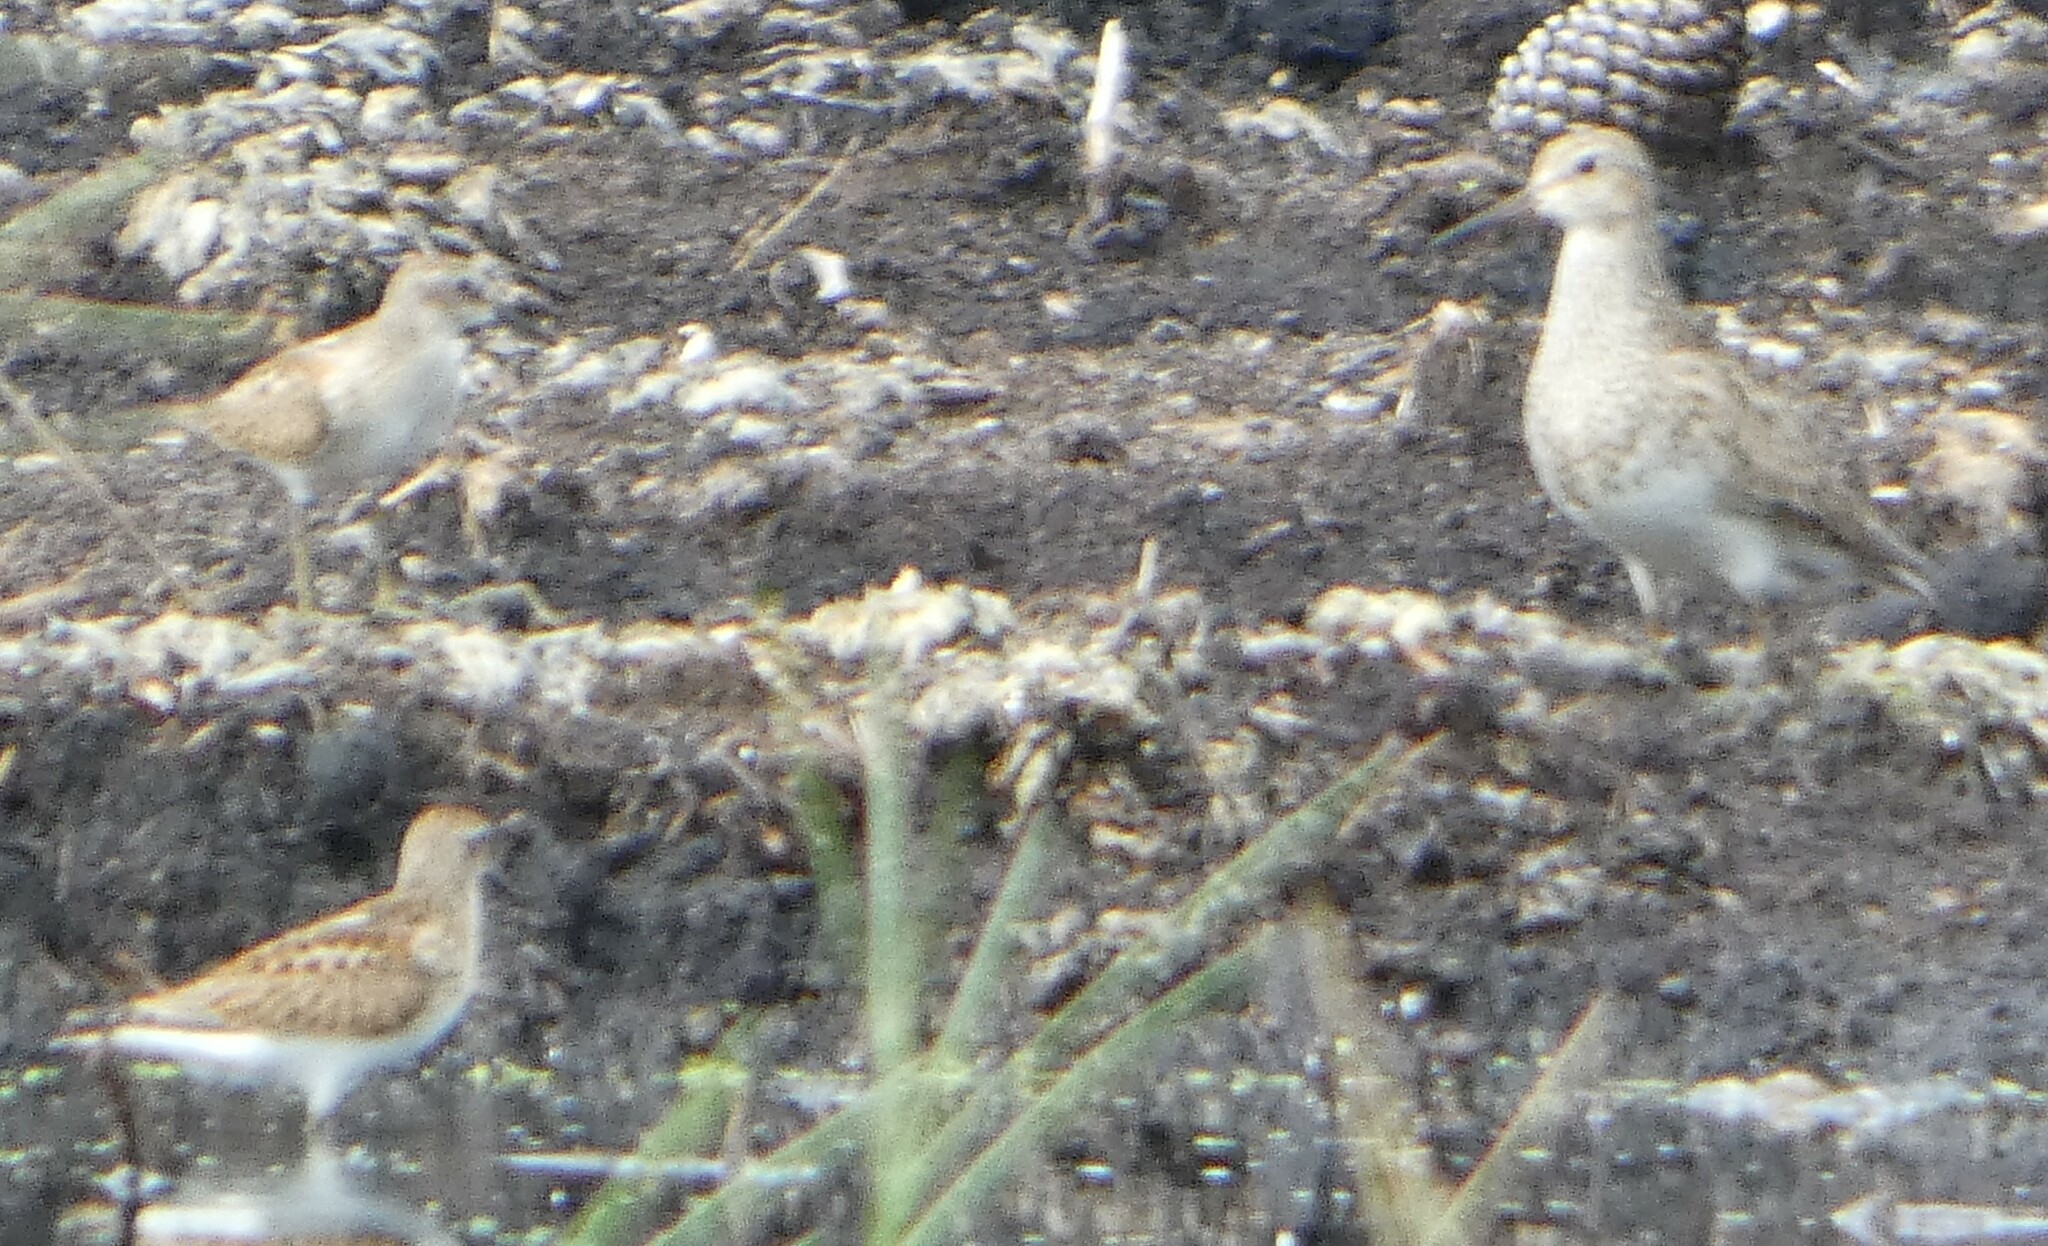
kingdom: Animalia
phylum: Chordata
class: Aves
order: Charadriiformes
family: Scolopacidae
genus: Calidris
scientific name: Calidris melanotos
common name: Pectoral sandpiper
